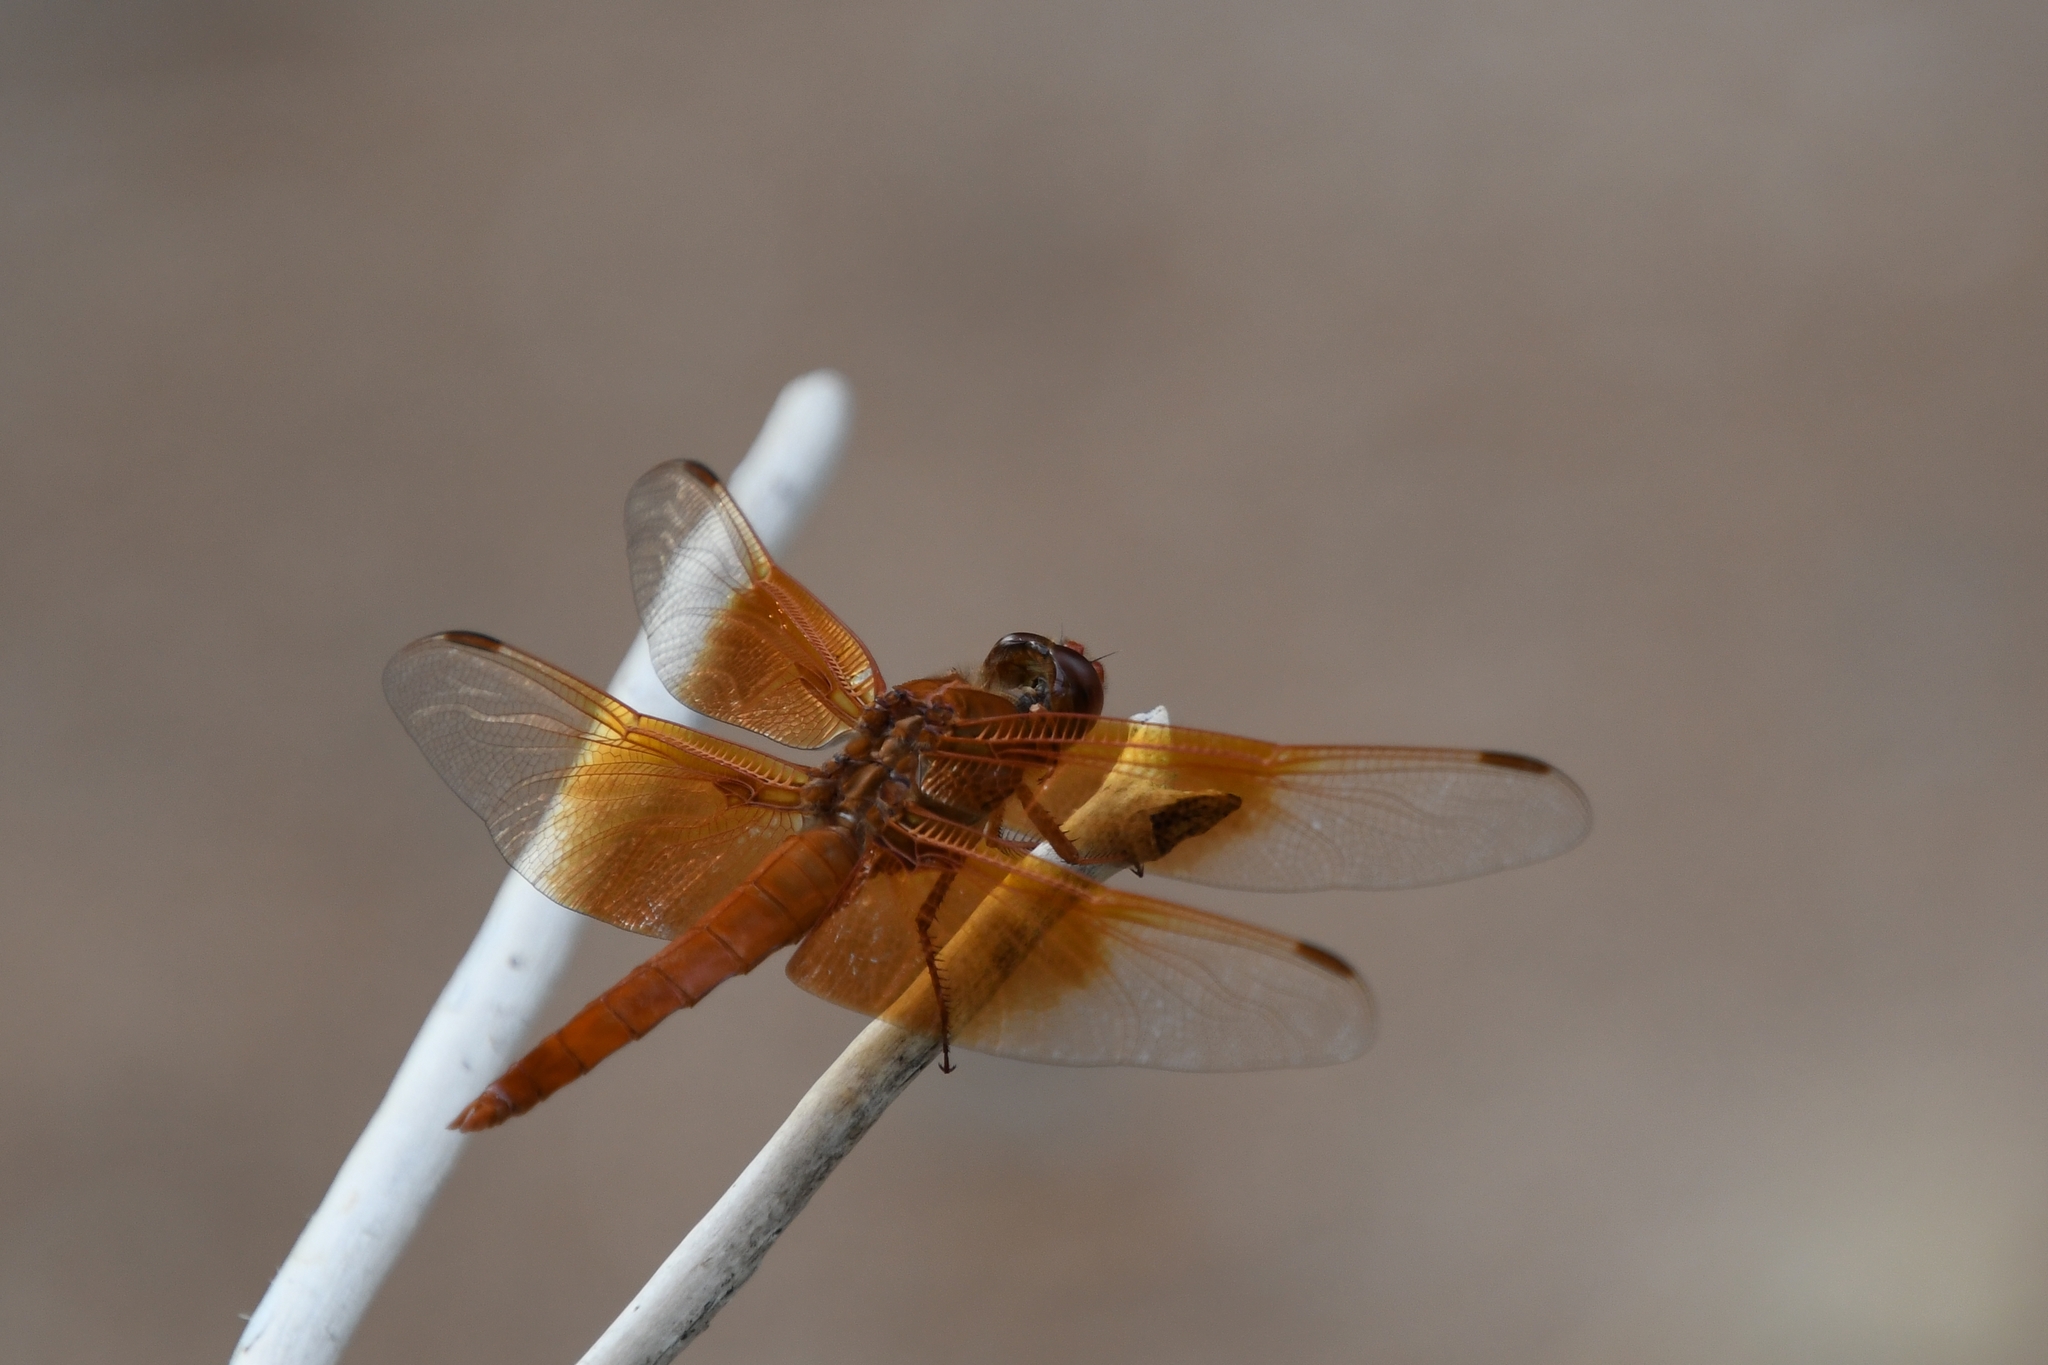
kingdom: Animalia
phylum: Arthropoda
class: Insecta
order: Odonata
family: Libellulidae
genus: Libellula
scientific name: Libellula saturata
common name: Flame skimmer
